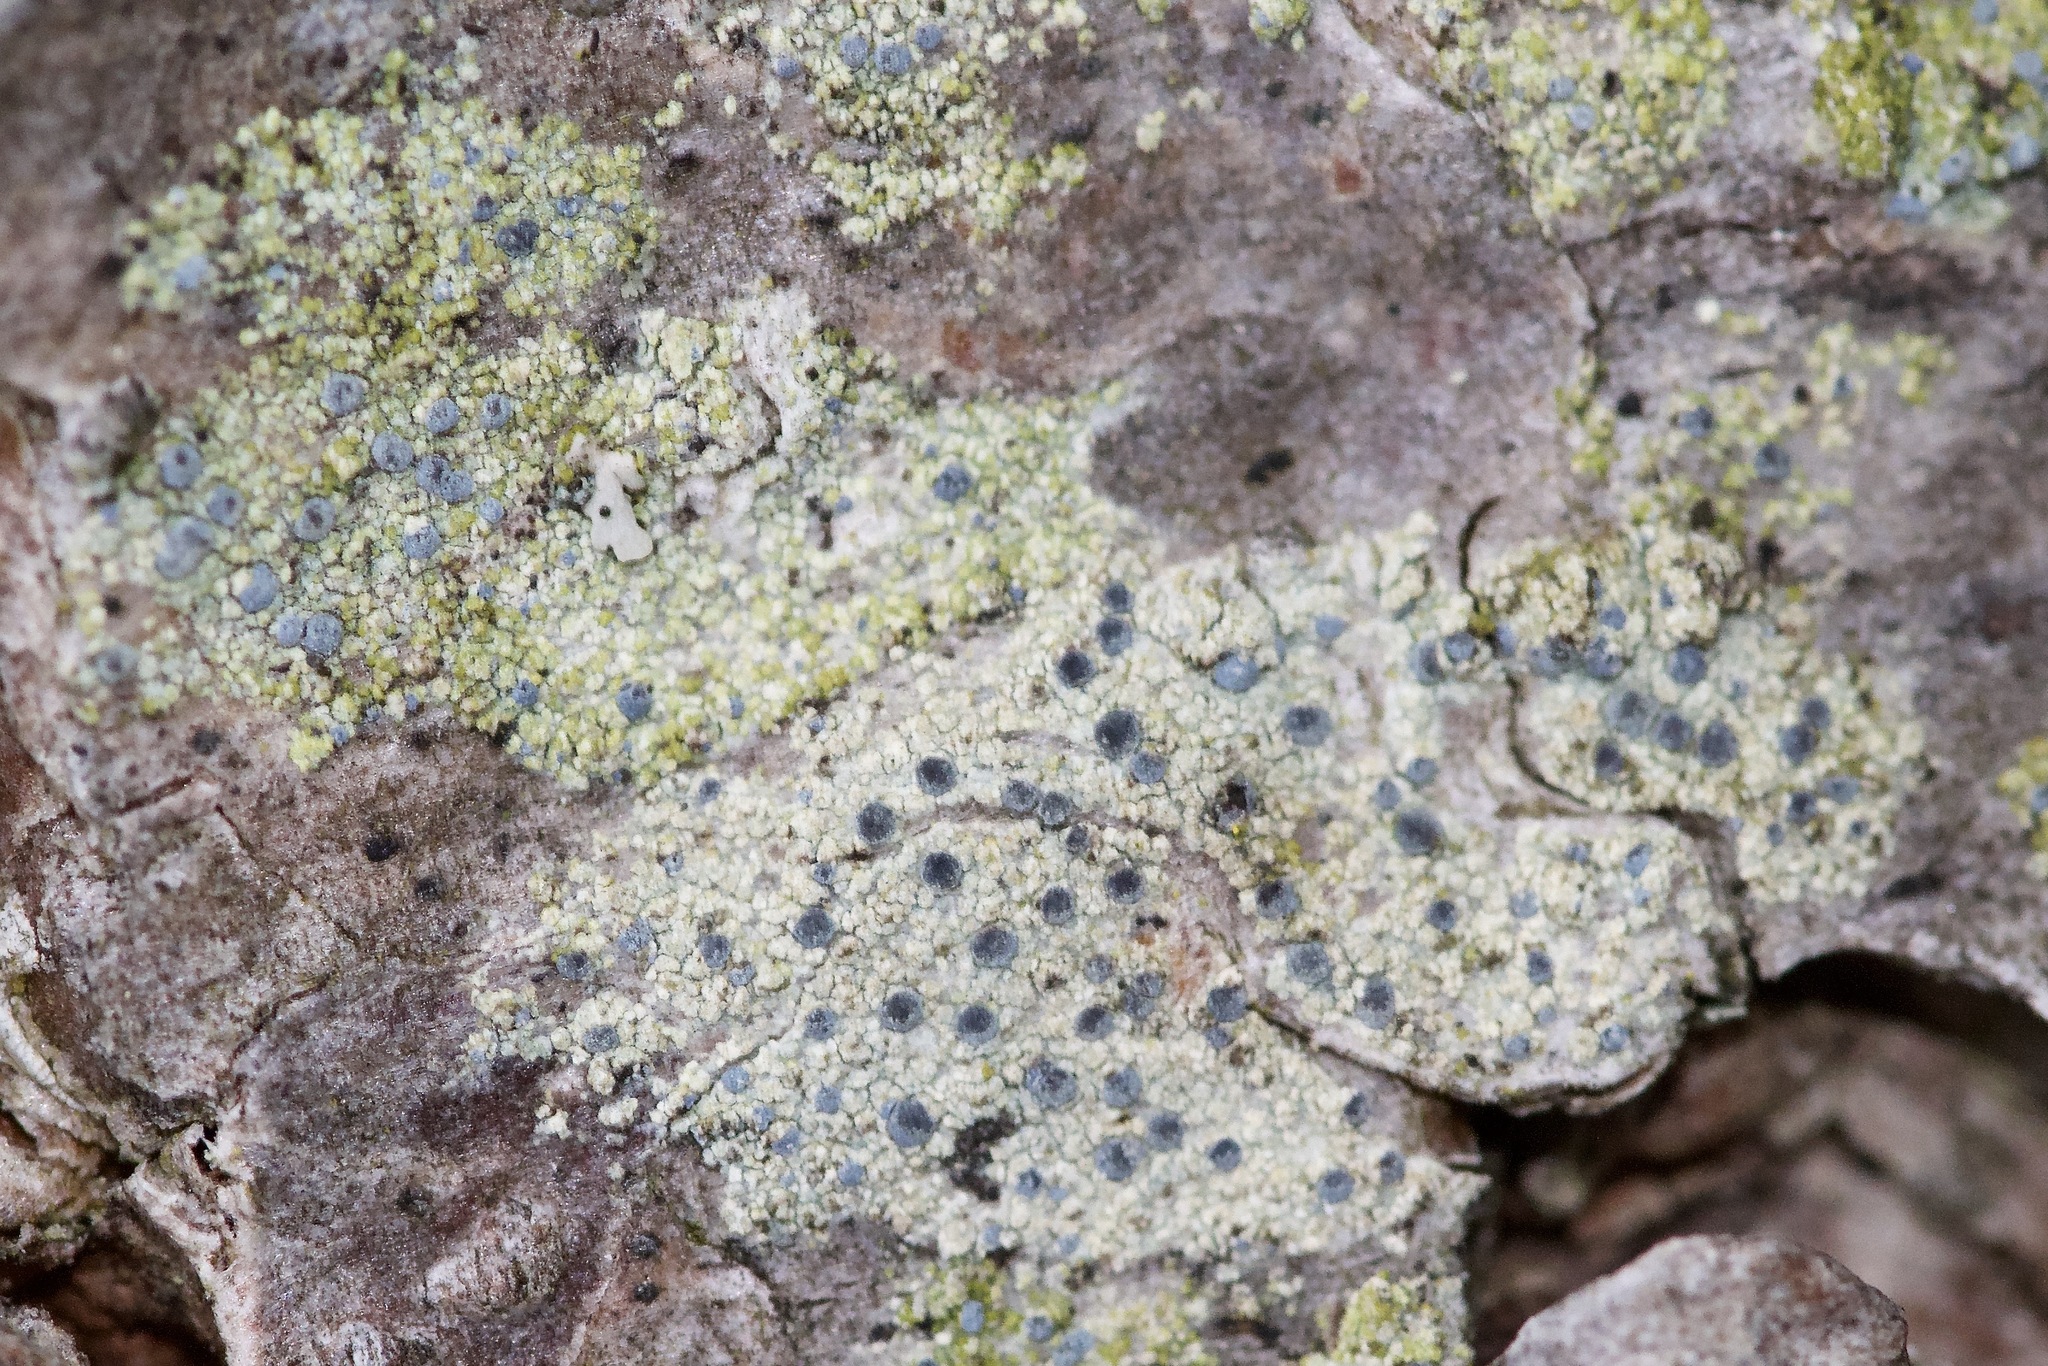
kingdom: Fungi
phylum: Ascomycota
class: Arthoniomycetes
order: Arthoniales
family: Chrysotrichaceae
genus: Chrysothrix
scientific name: Chrysothrix caesia
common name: Frosted comma lichen
